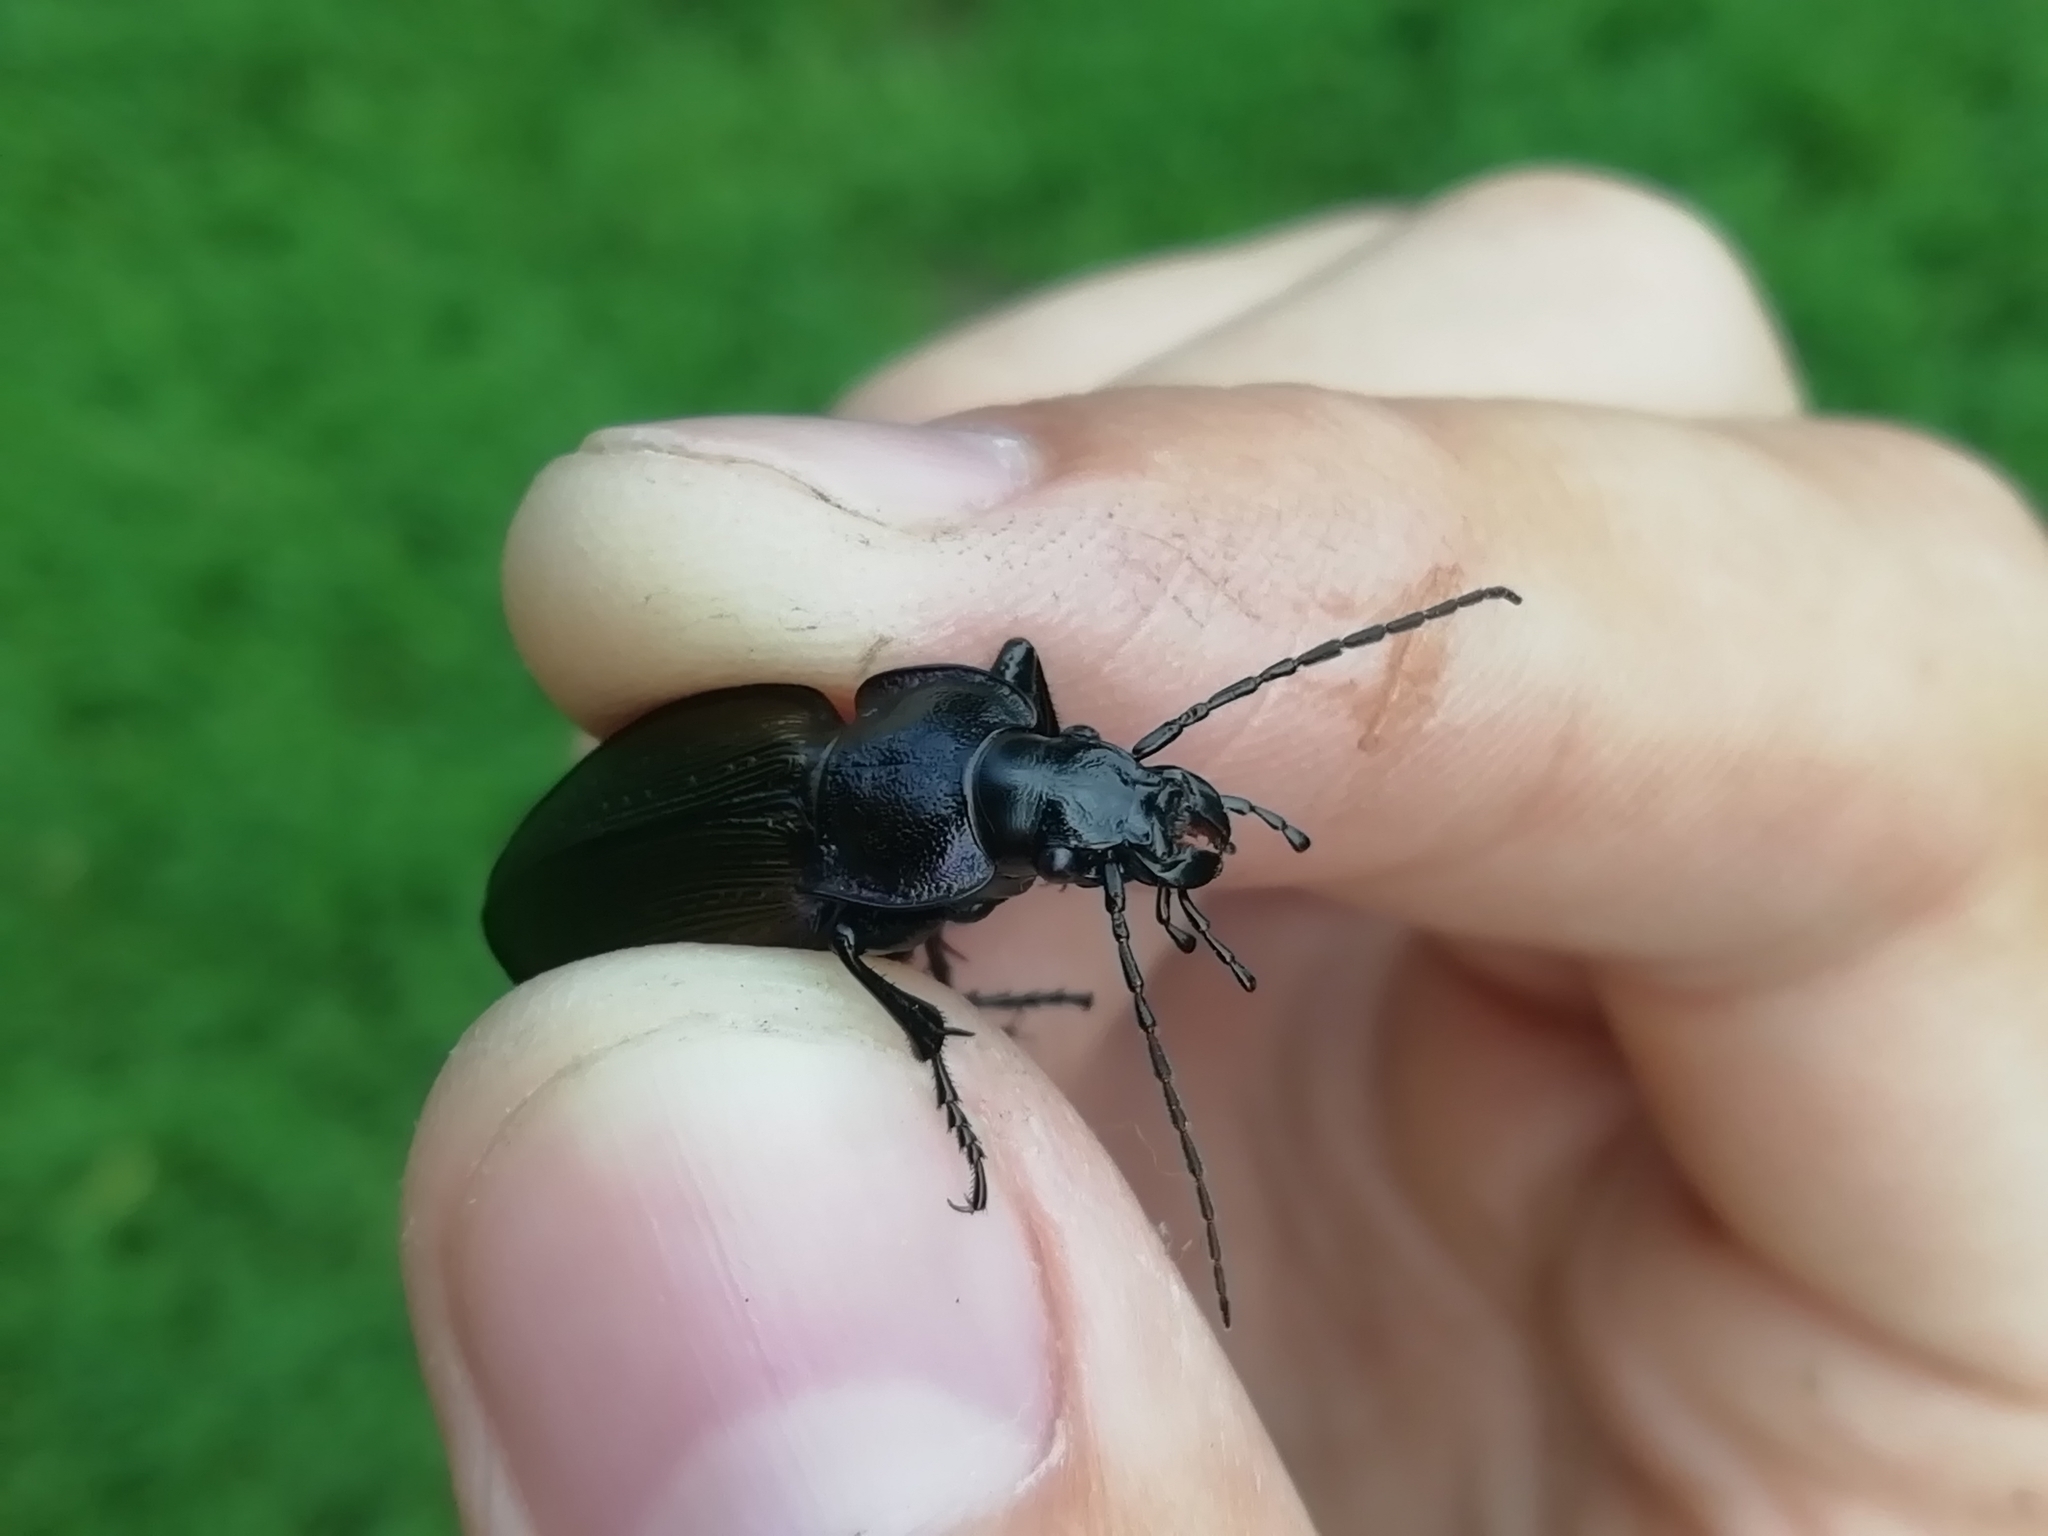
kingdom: Animalia
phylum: Arthropoda
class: Insecta
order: Coleoptera
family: Carabidae
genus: Carabus
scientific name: Carabus regalis
